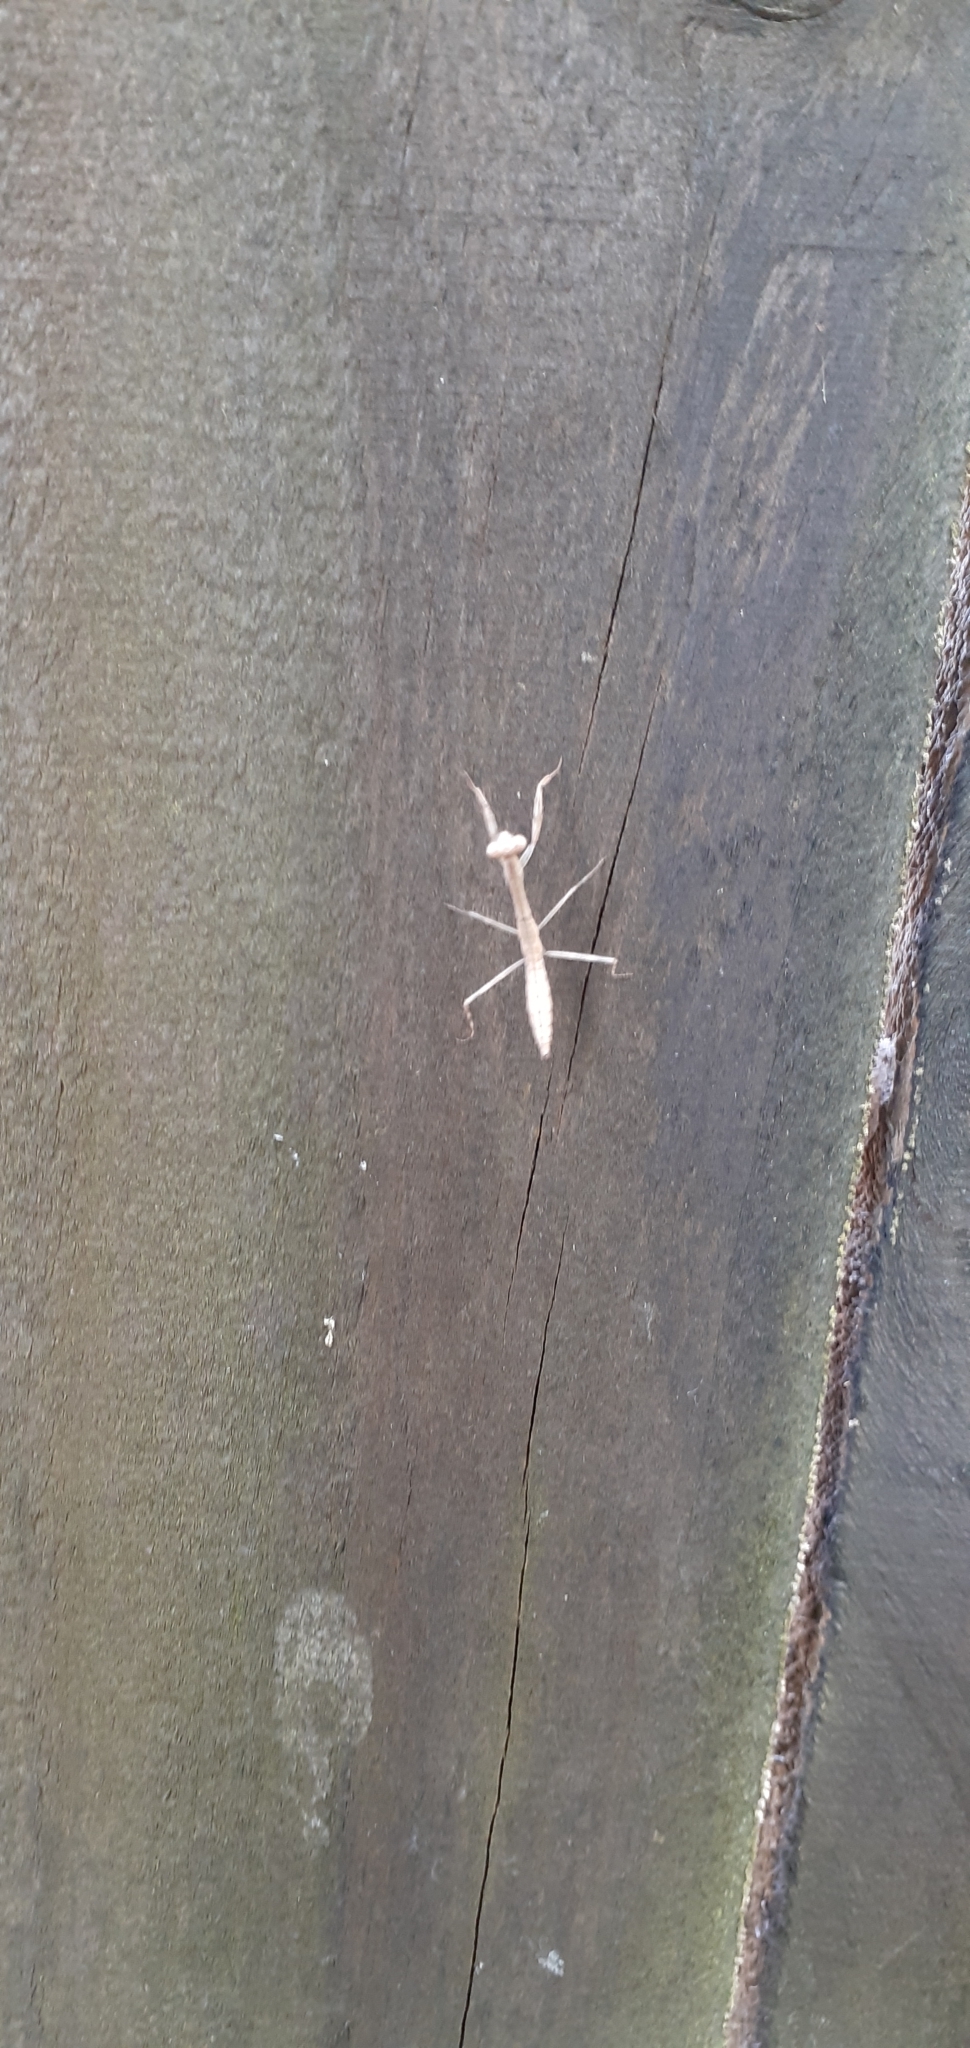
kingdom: Animalia
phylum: Arthropoda
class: Insecta
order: Mantodea
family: Miomantidae
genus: Miomantis
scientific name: Miomantis caffra
